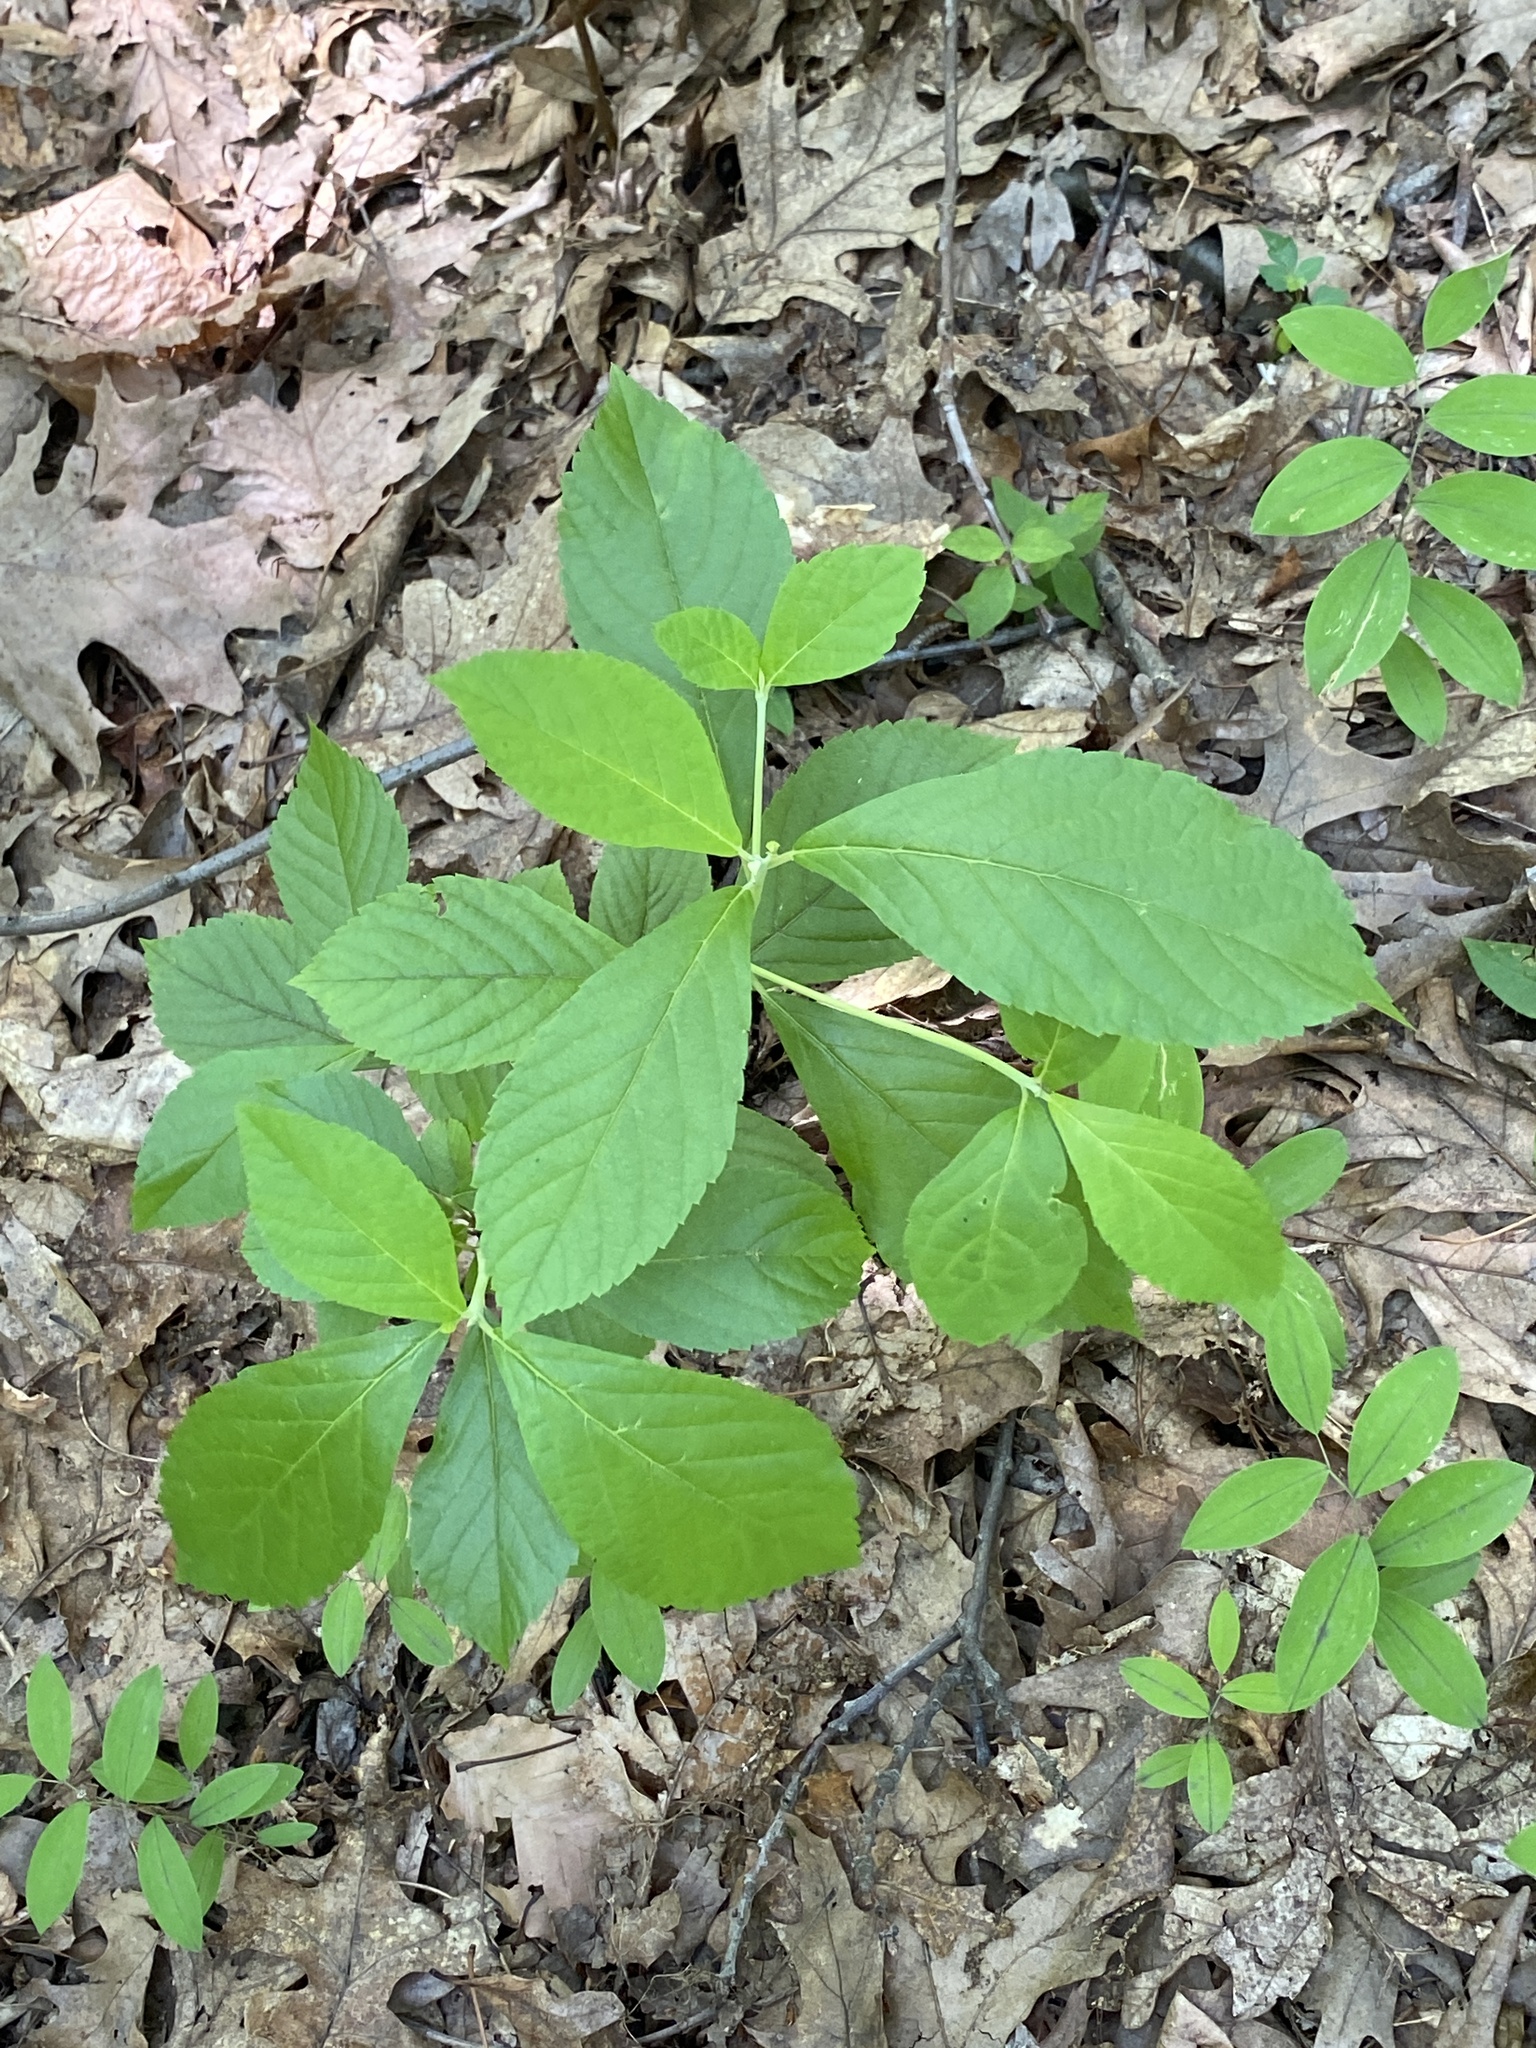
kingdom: Plantae
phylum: Tracheophyta
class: Magnoliopsida
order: Ericales
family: Clethraceae
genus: Clethra
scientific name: Clethra alnifolia
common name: Sweet pepperbush
